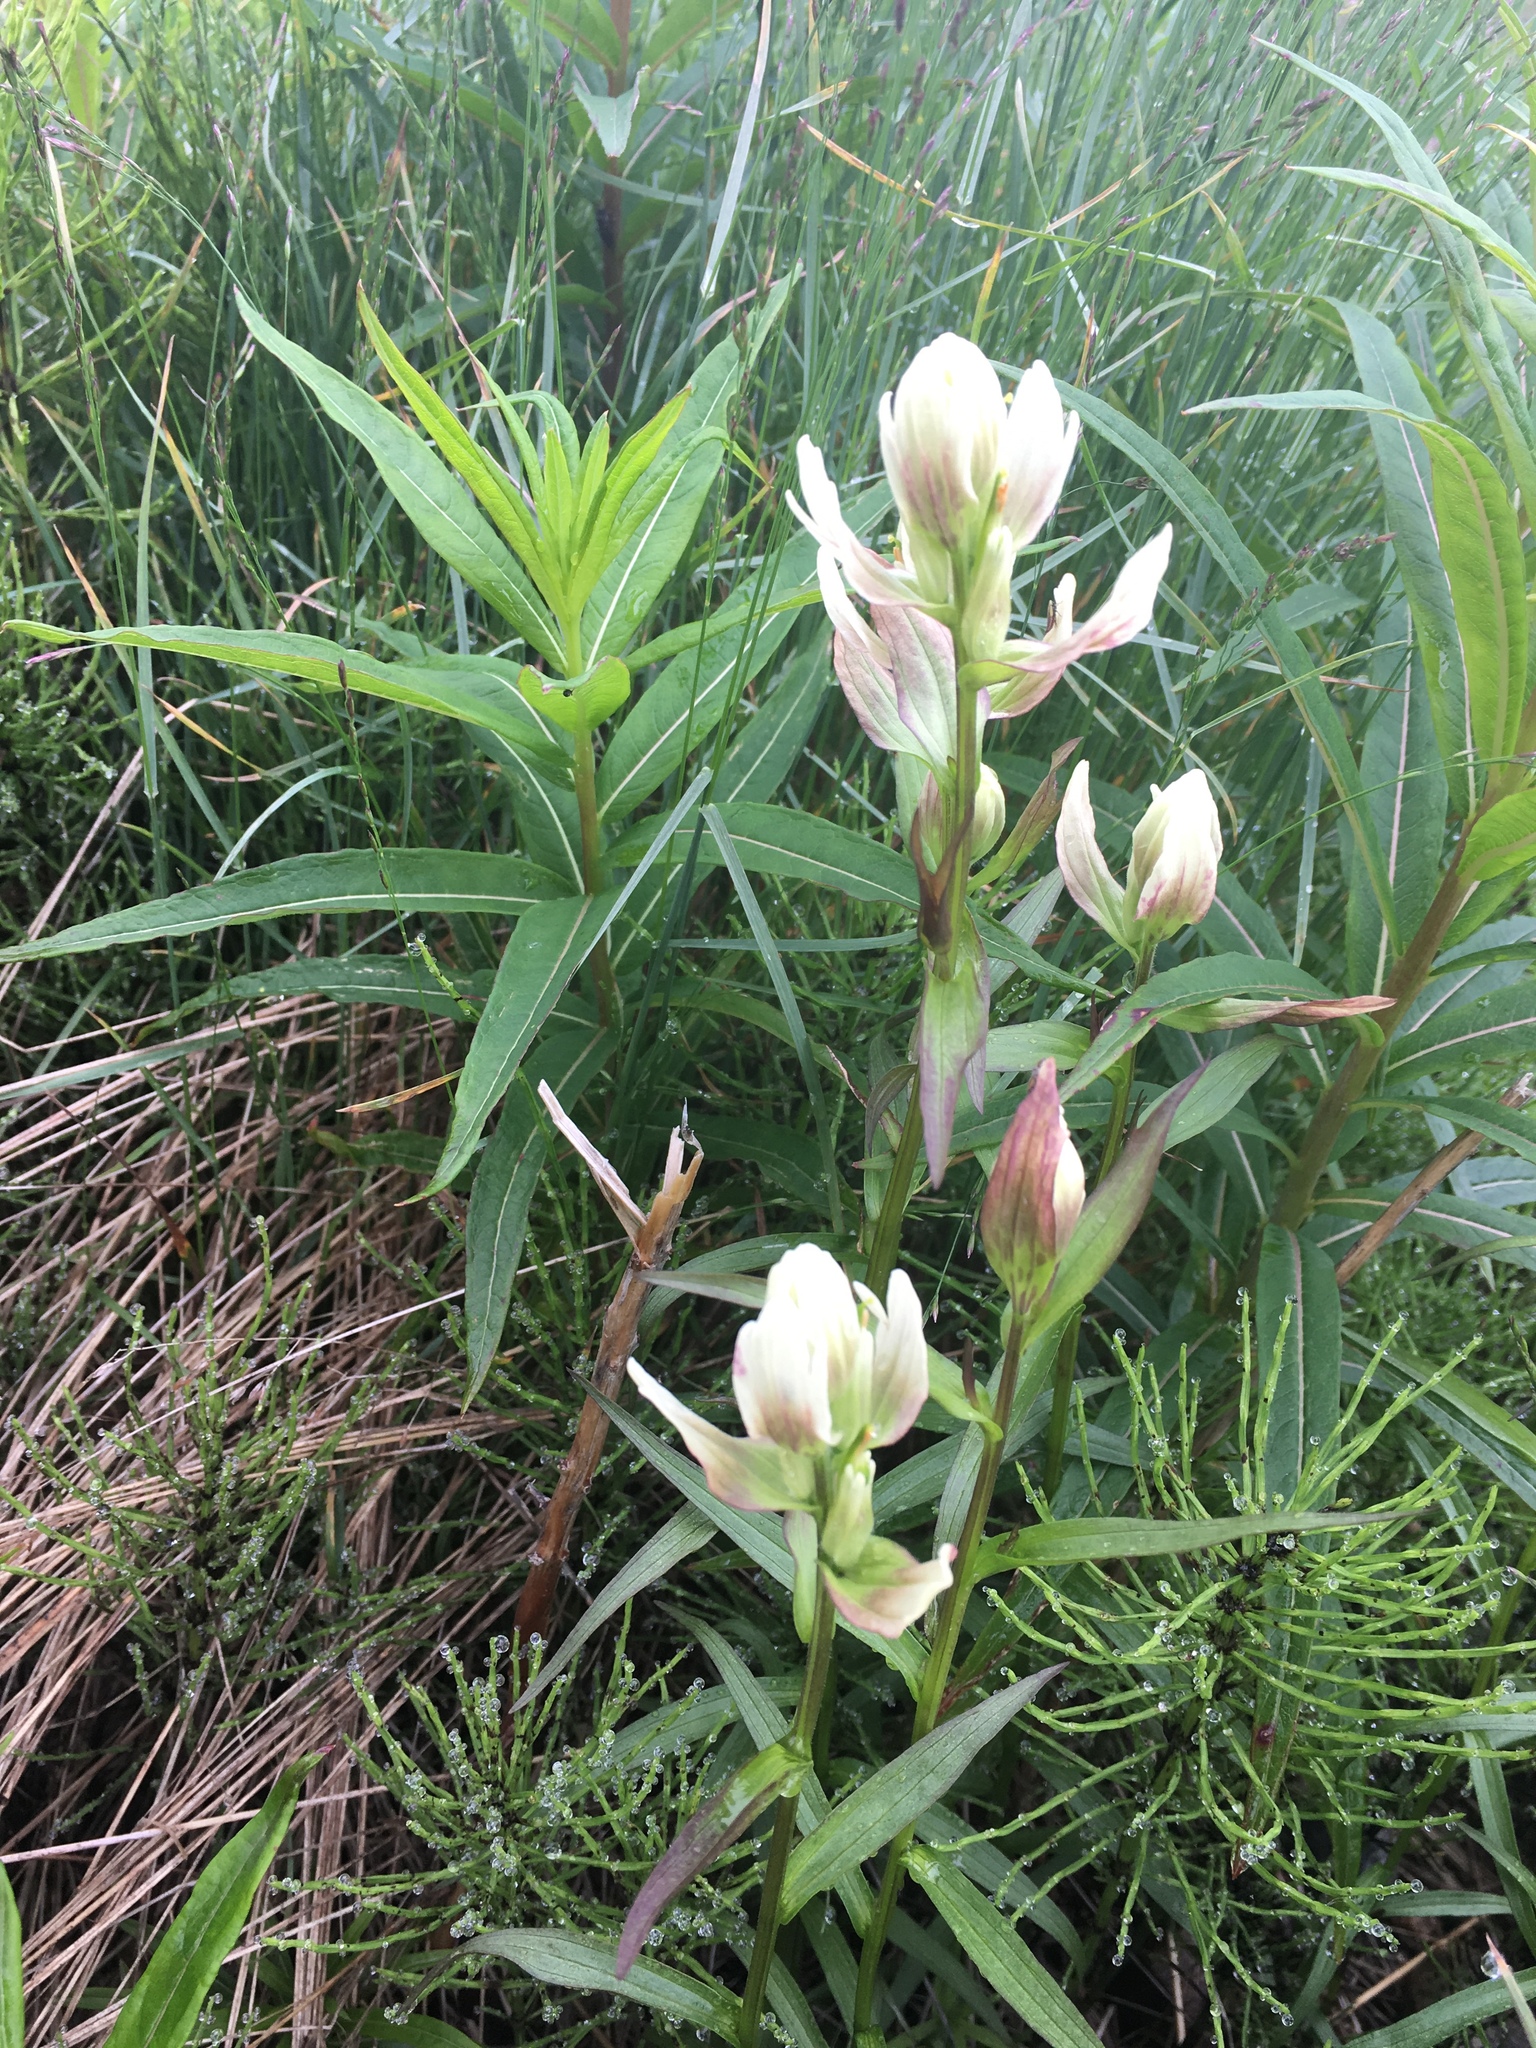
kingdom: Plantae
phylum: Tracheophyta
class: Magnoliopsida
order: Lamiales
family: Orobanchaceae
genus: Castilleja
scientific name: Castilleja septentrionalis
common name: Northeastern paintbrush
